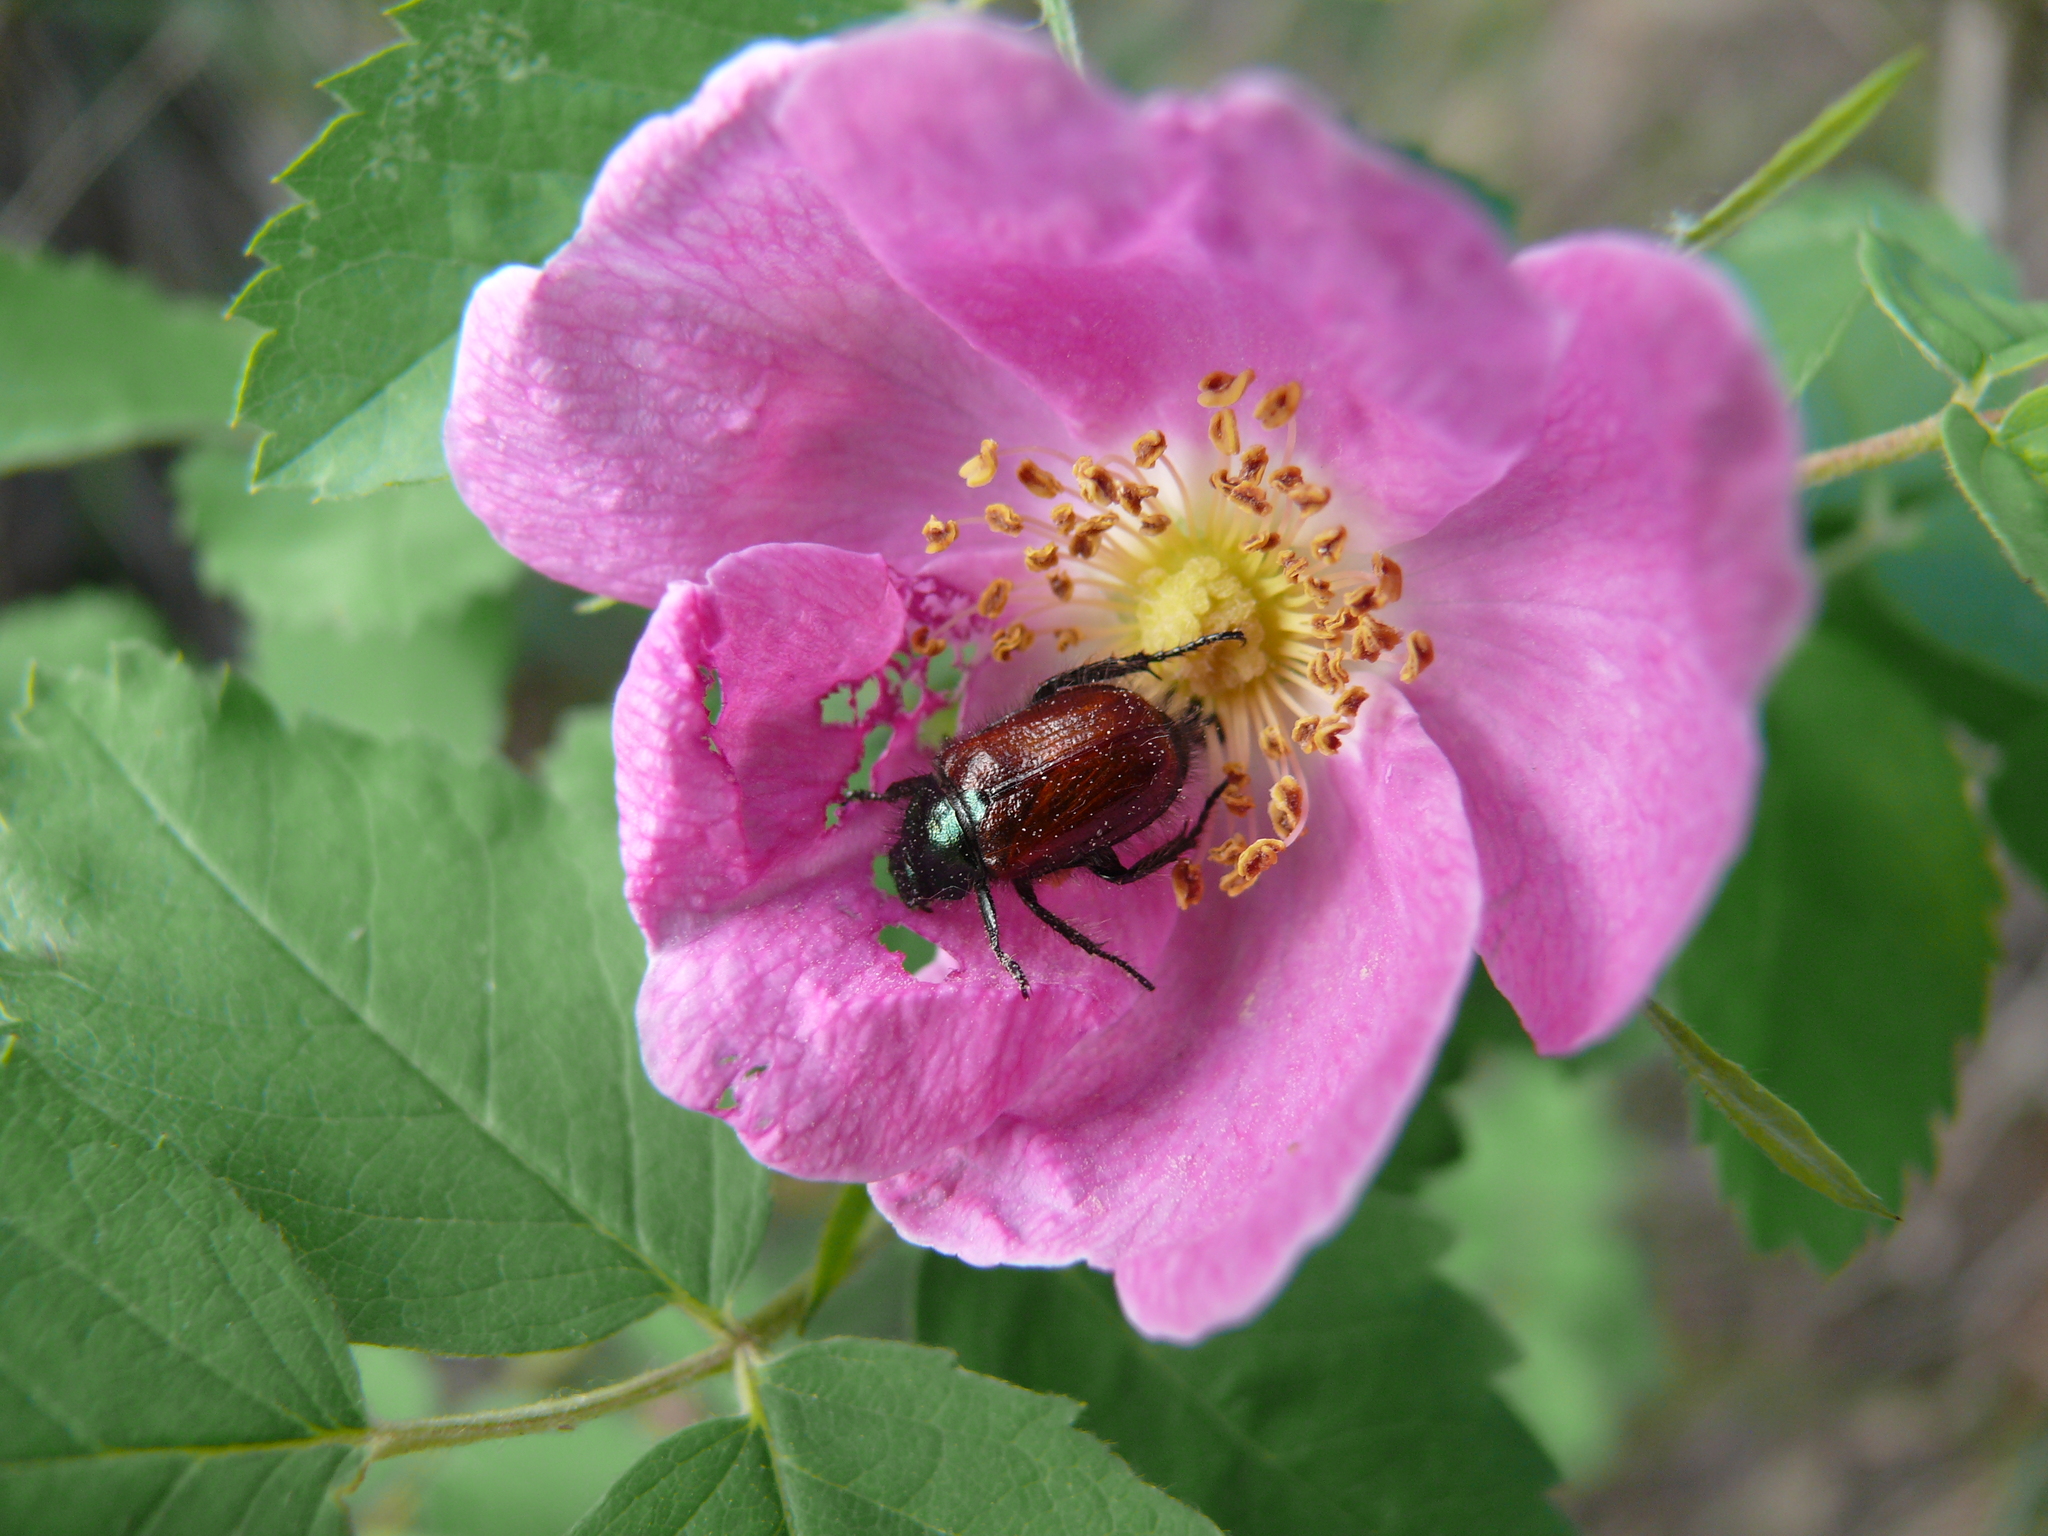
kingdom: Animalia
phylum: Arthropoda
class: Insecta
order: Coleoptera
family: Scarabaeidae
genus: Phyllopertha
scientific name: Phyllopertha horticola
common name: Garden chafer
